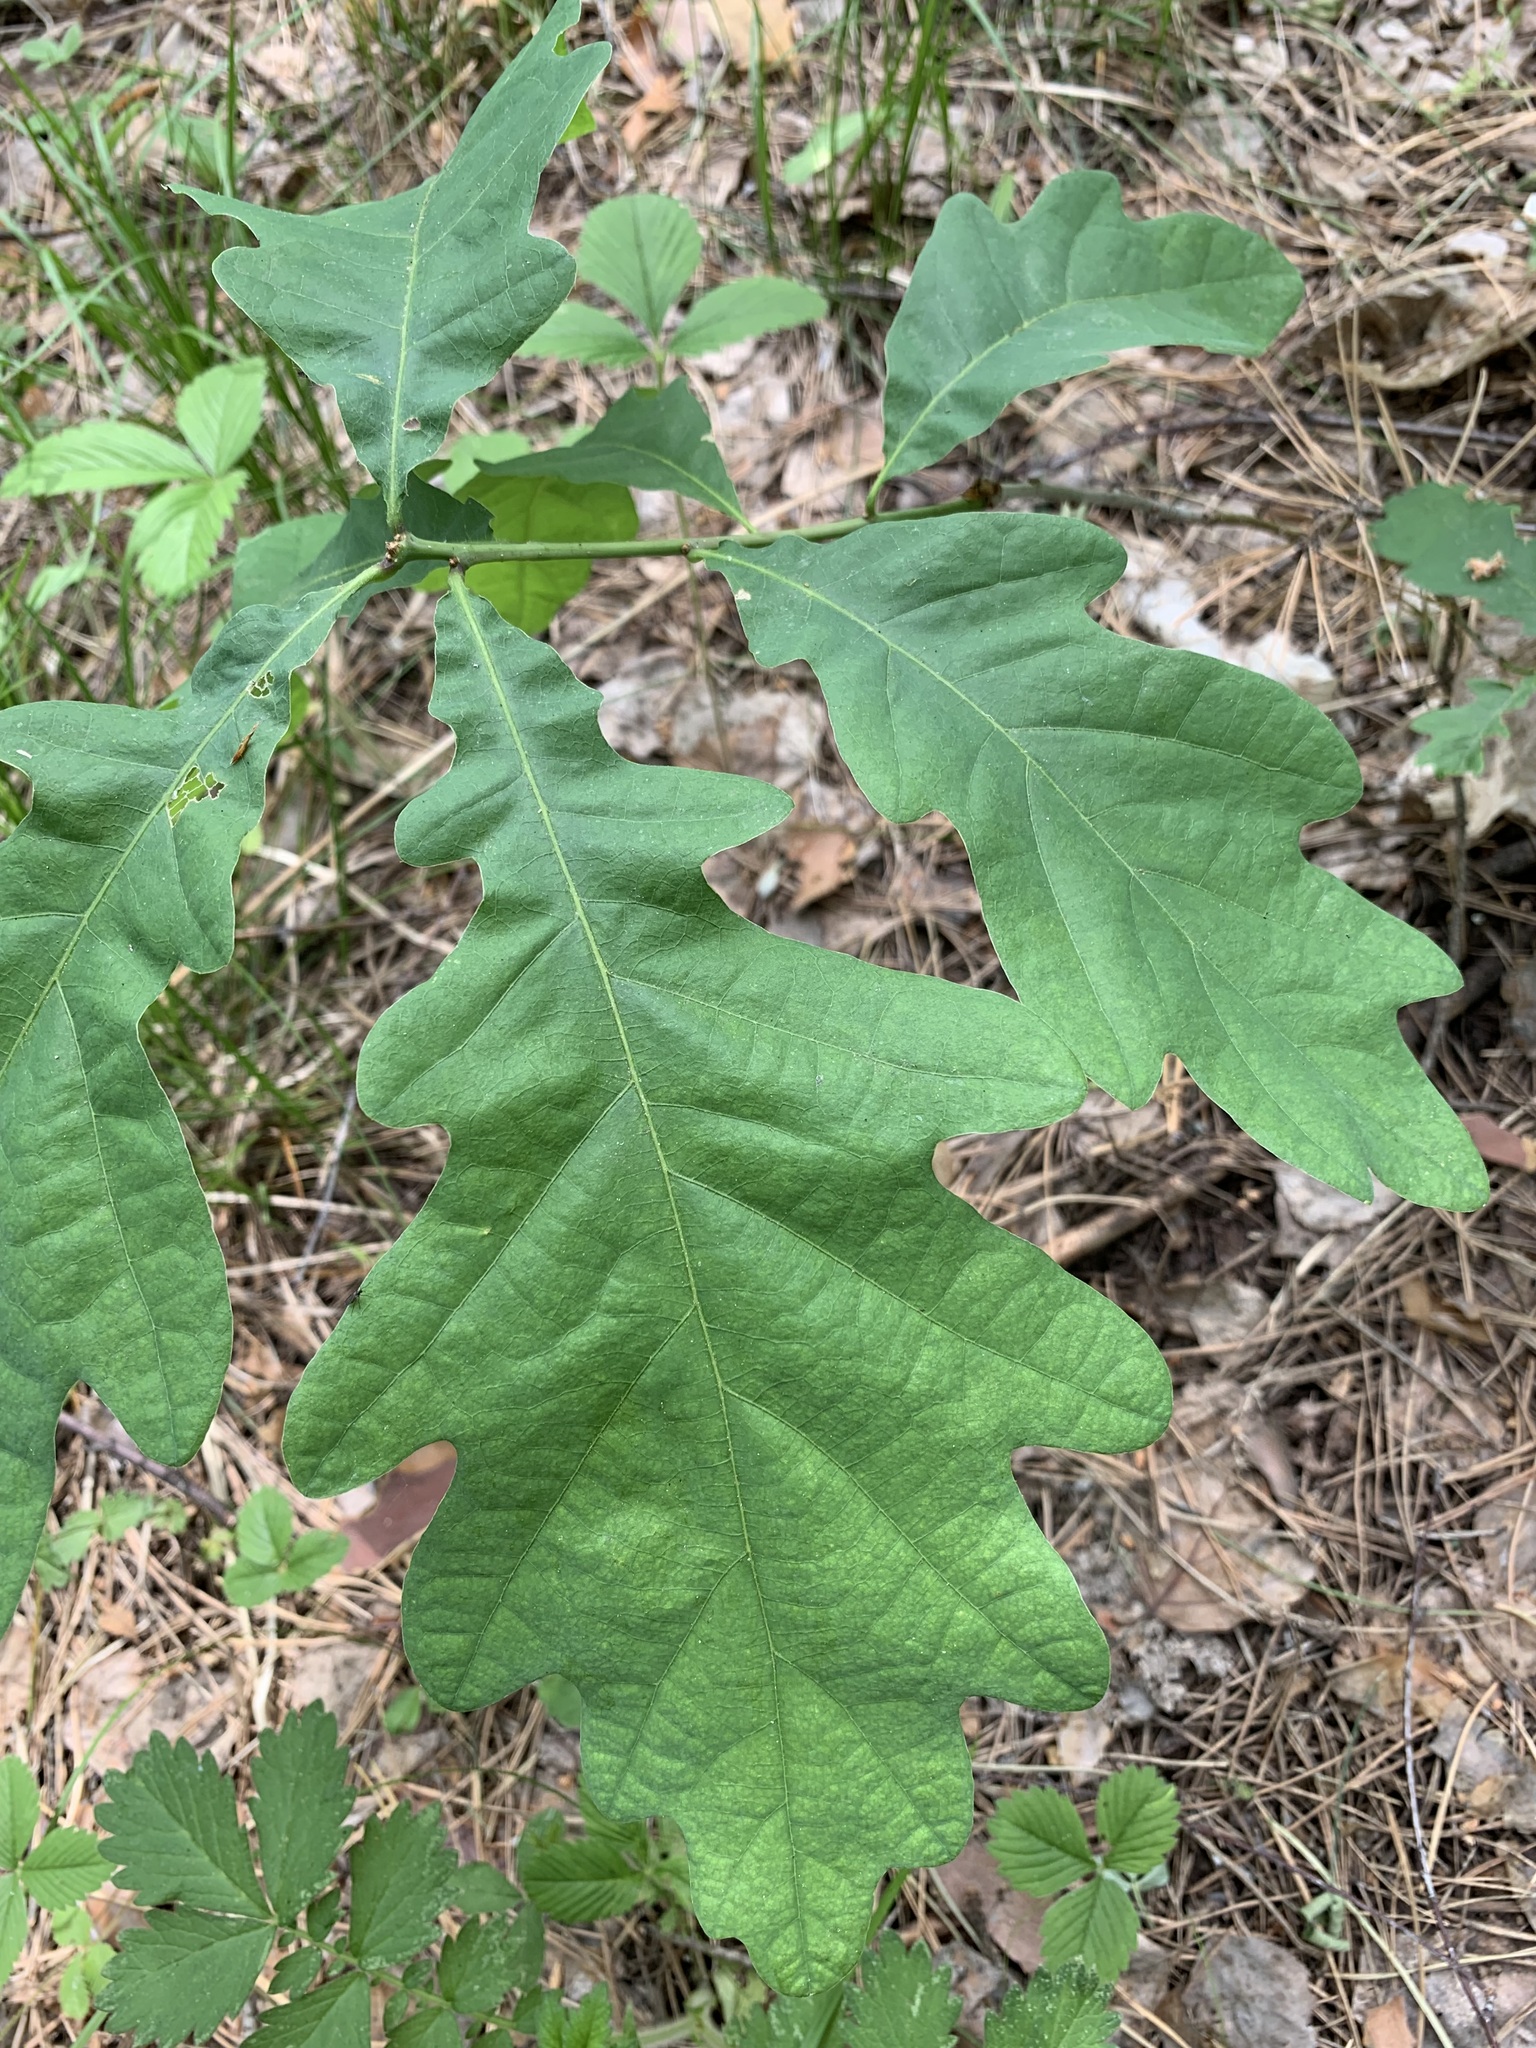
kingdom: Plantae
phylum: Tracheophyta
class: Magnoliopsida
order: Fagales
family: Fagaceae
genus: Quercus
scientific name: Quercus robur
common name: Pedunculate oak
